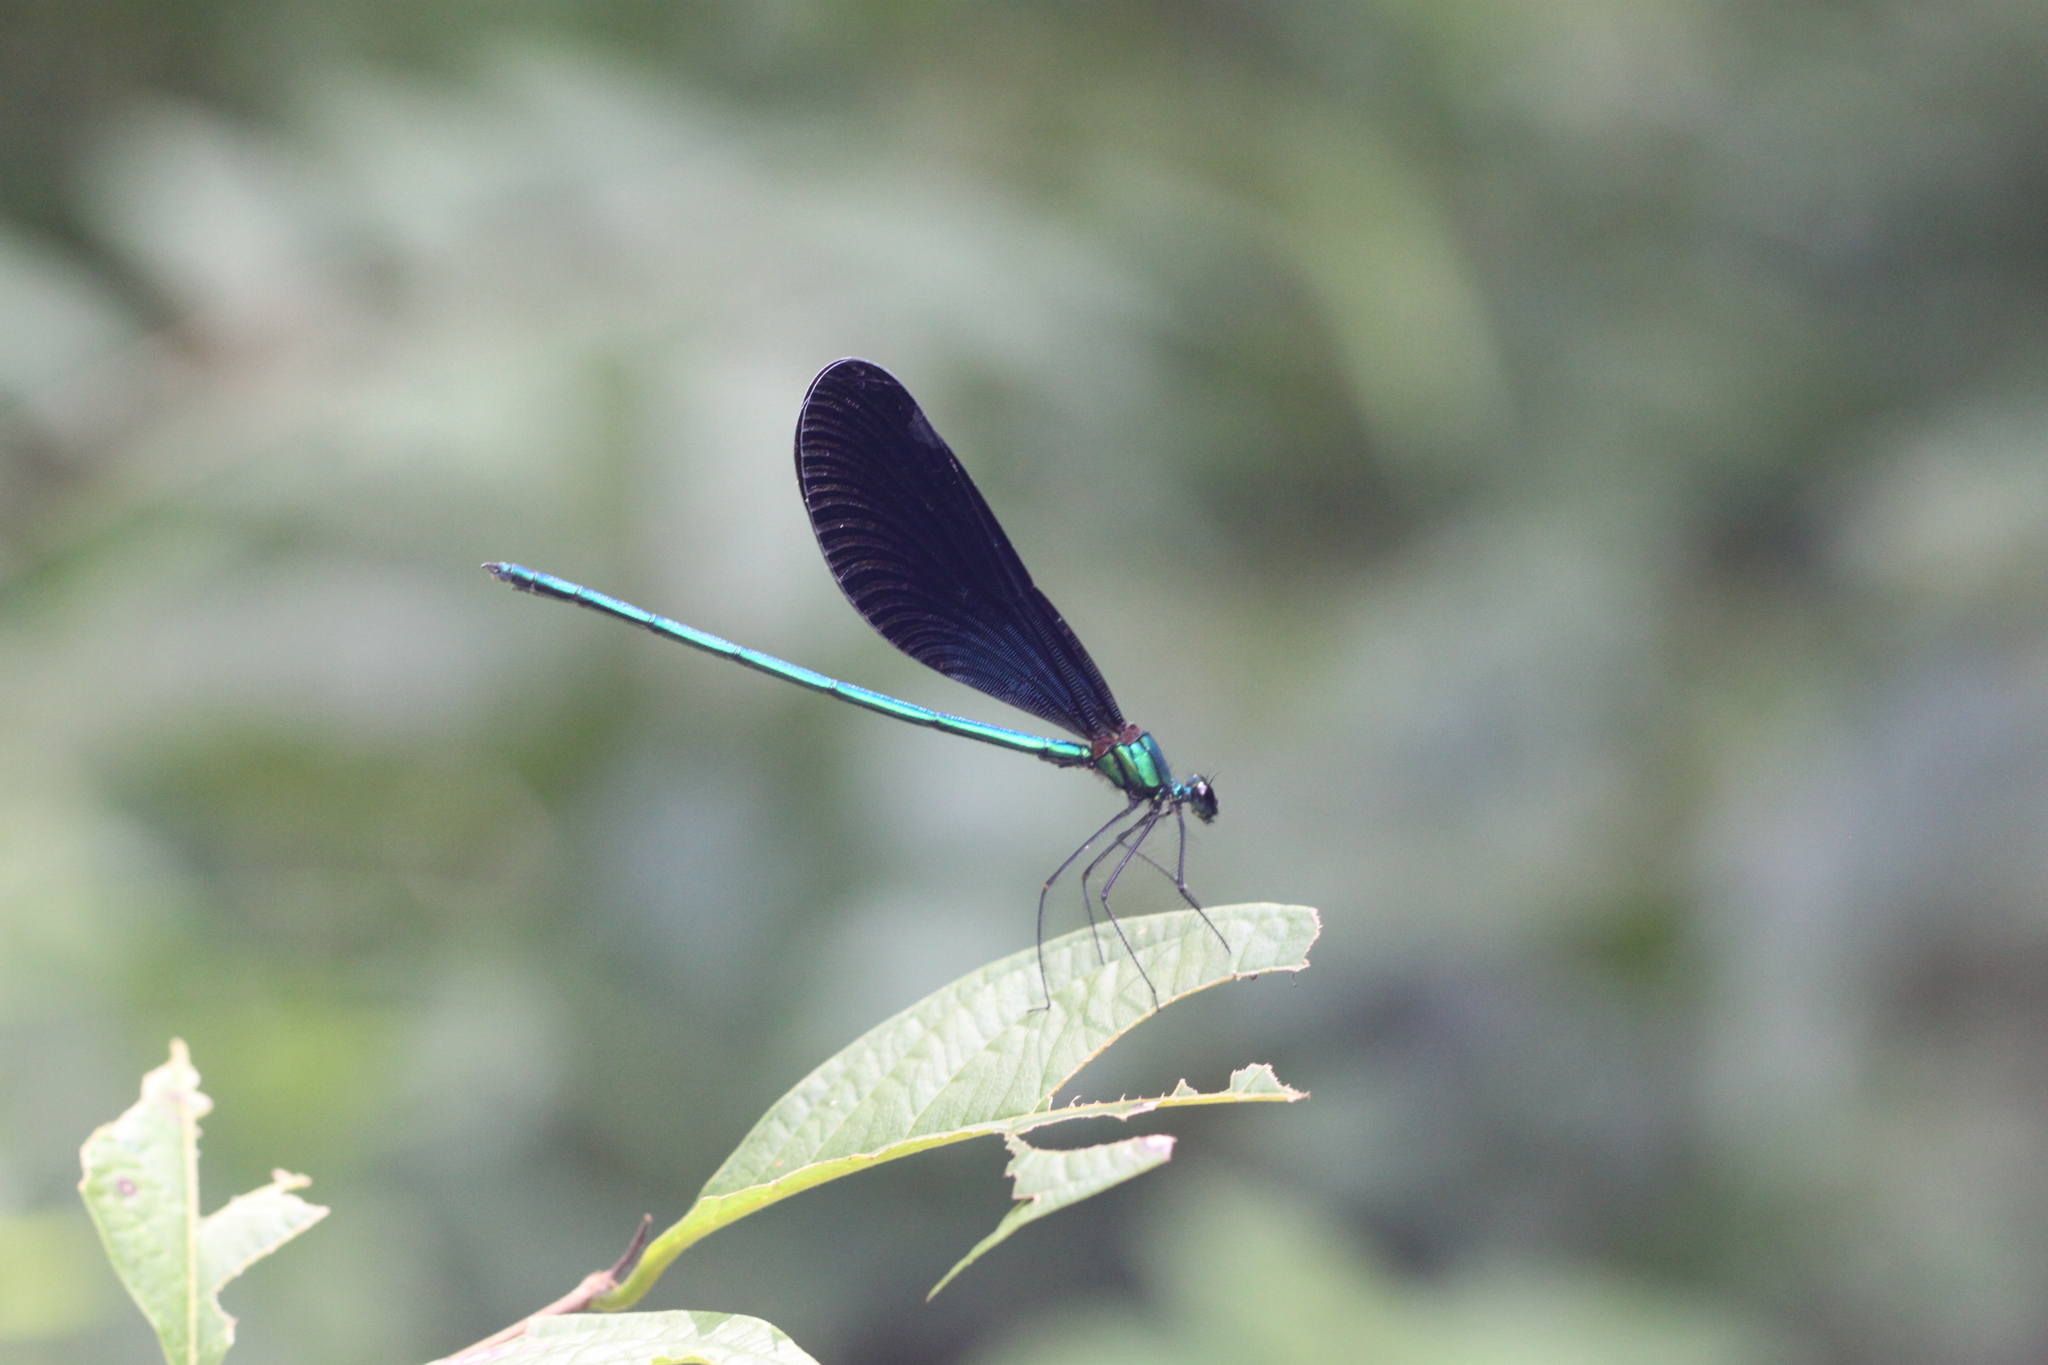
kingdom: Animalia
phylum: Arthropoda
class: Insecta
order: Odonata
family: Calopterygidae
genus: Matrona
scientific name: Matrona nigripectus
